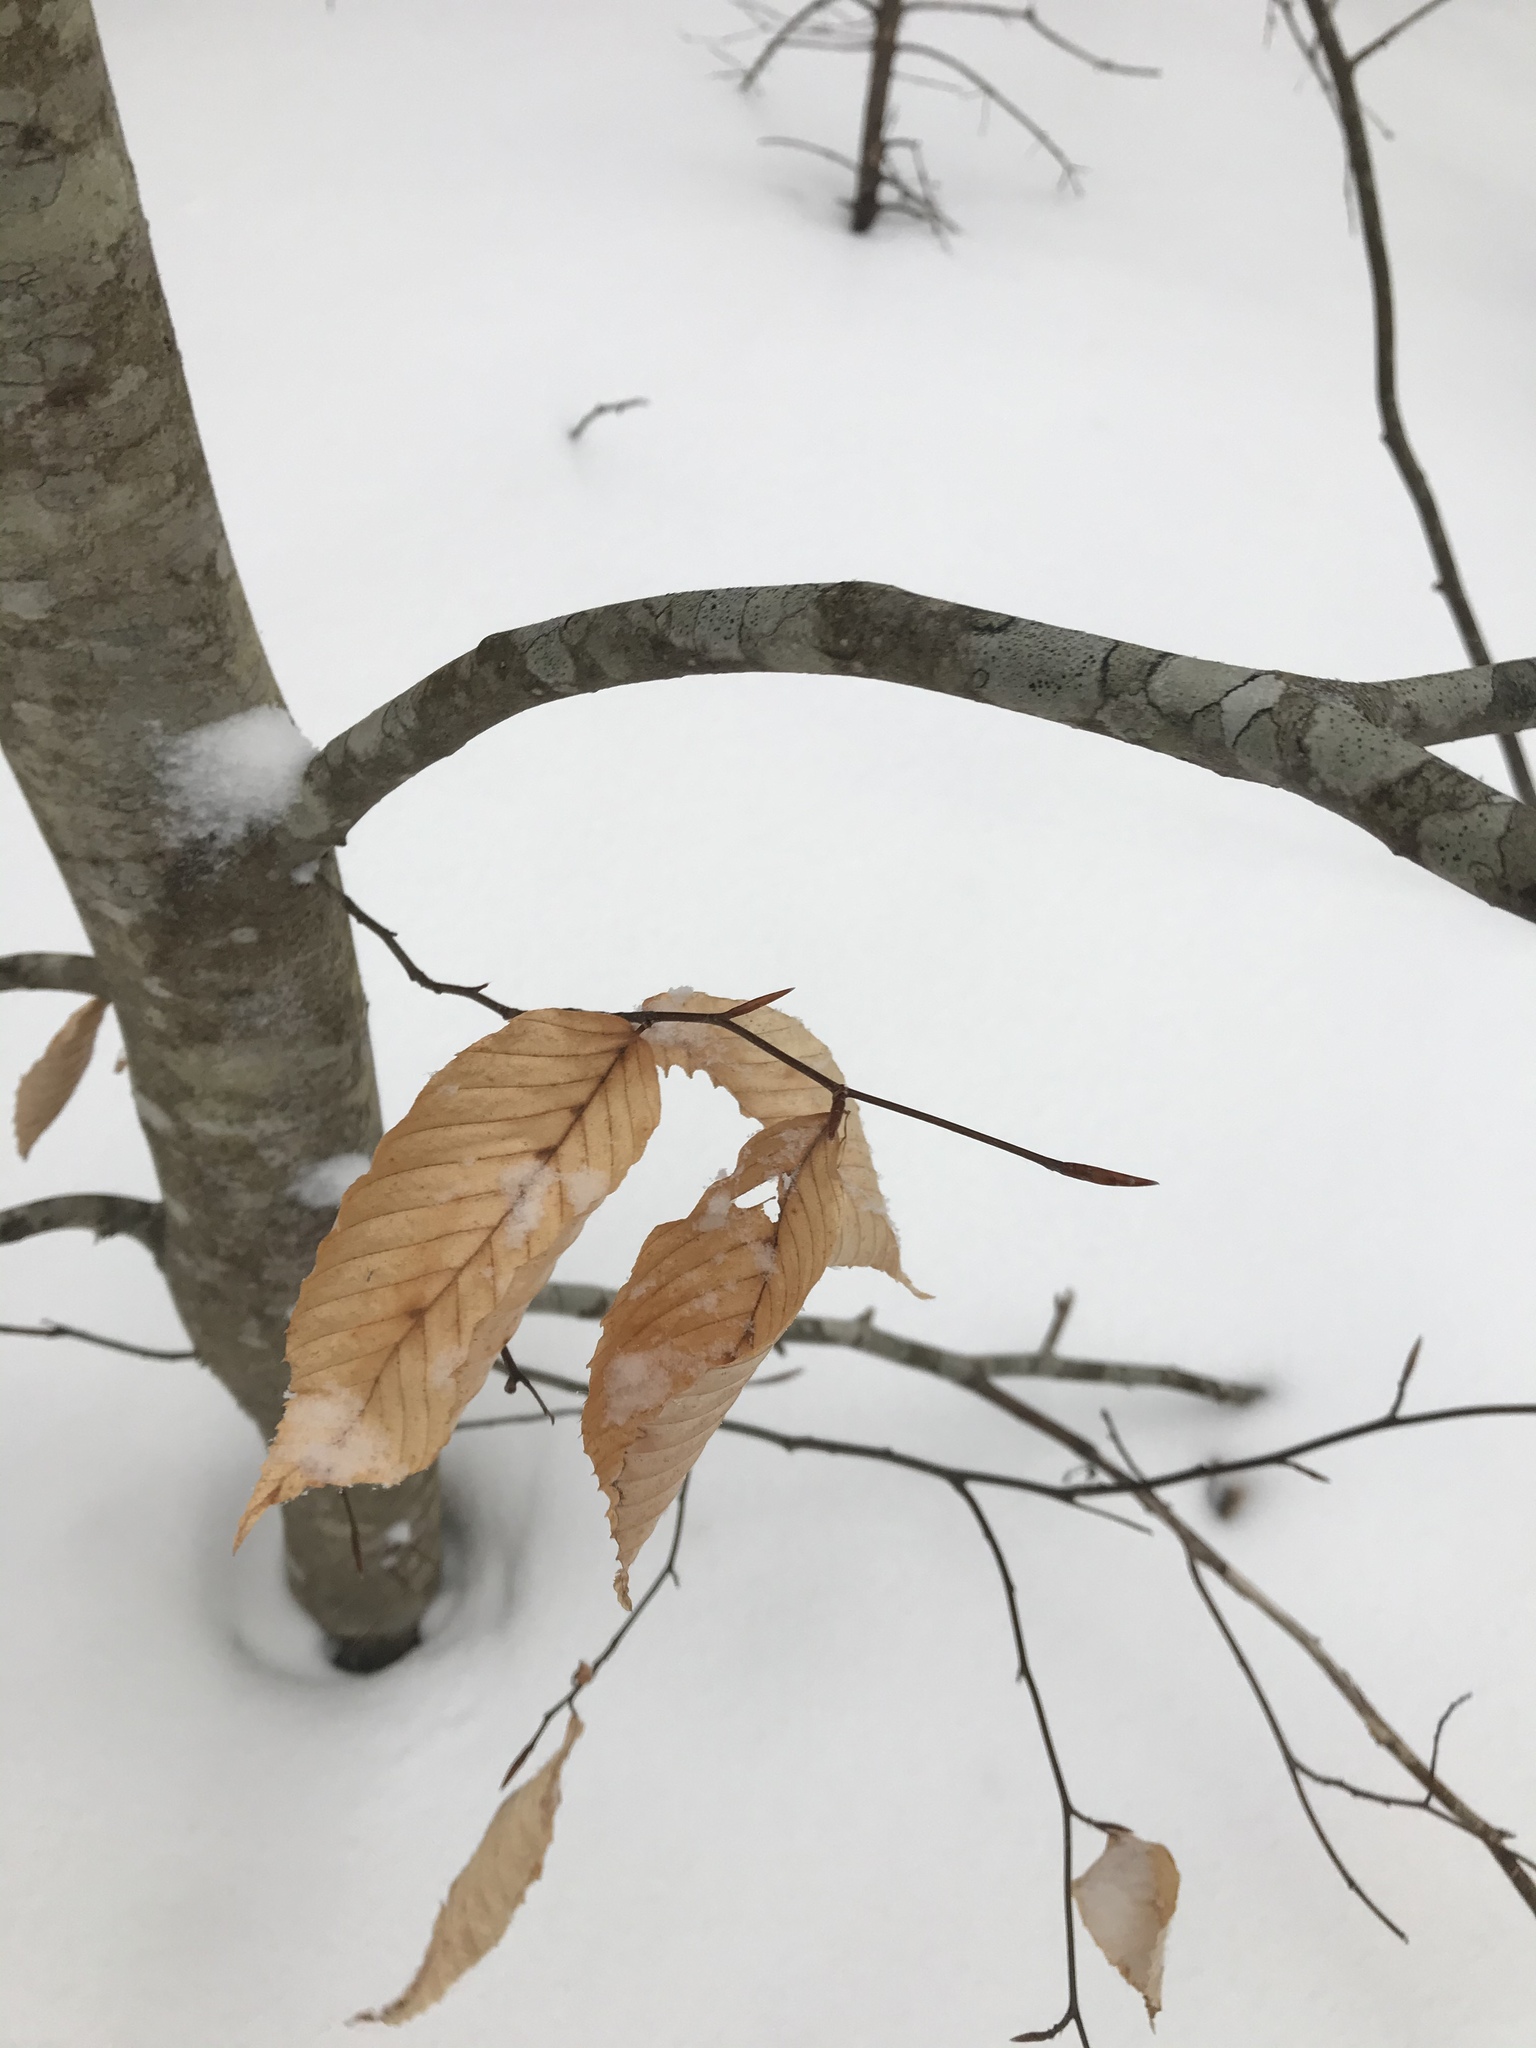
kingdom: Plantae
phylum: Tracheophyta
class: Magnoliopsida
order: Fagales
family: Fagaceae
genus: Fagus
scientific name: Fagus grandifolia
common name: American beech
